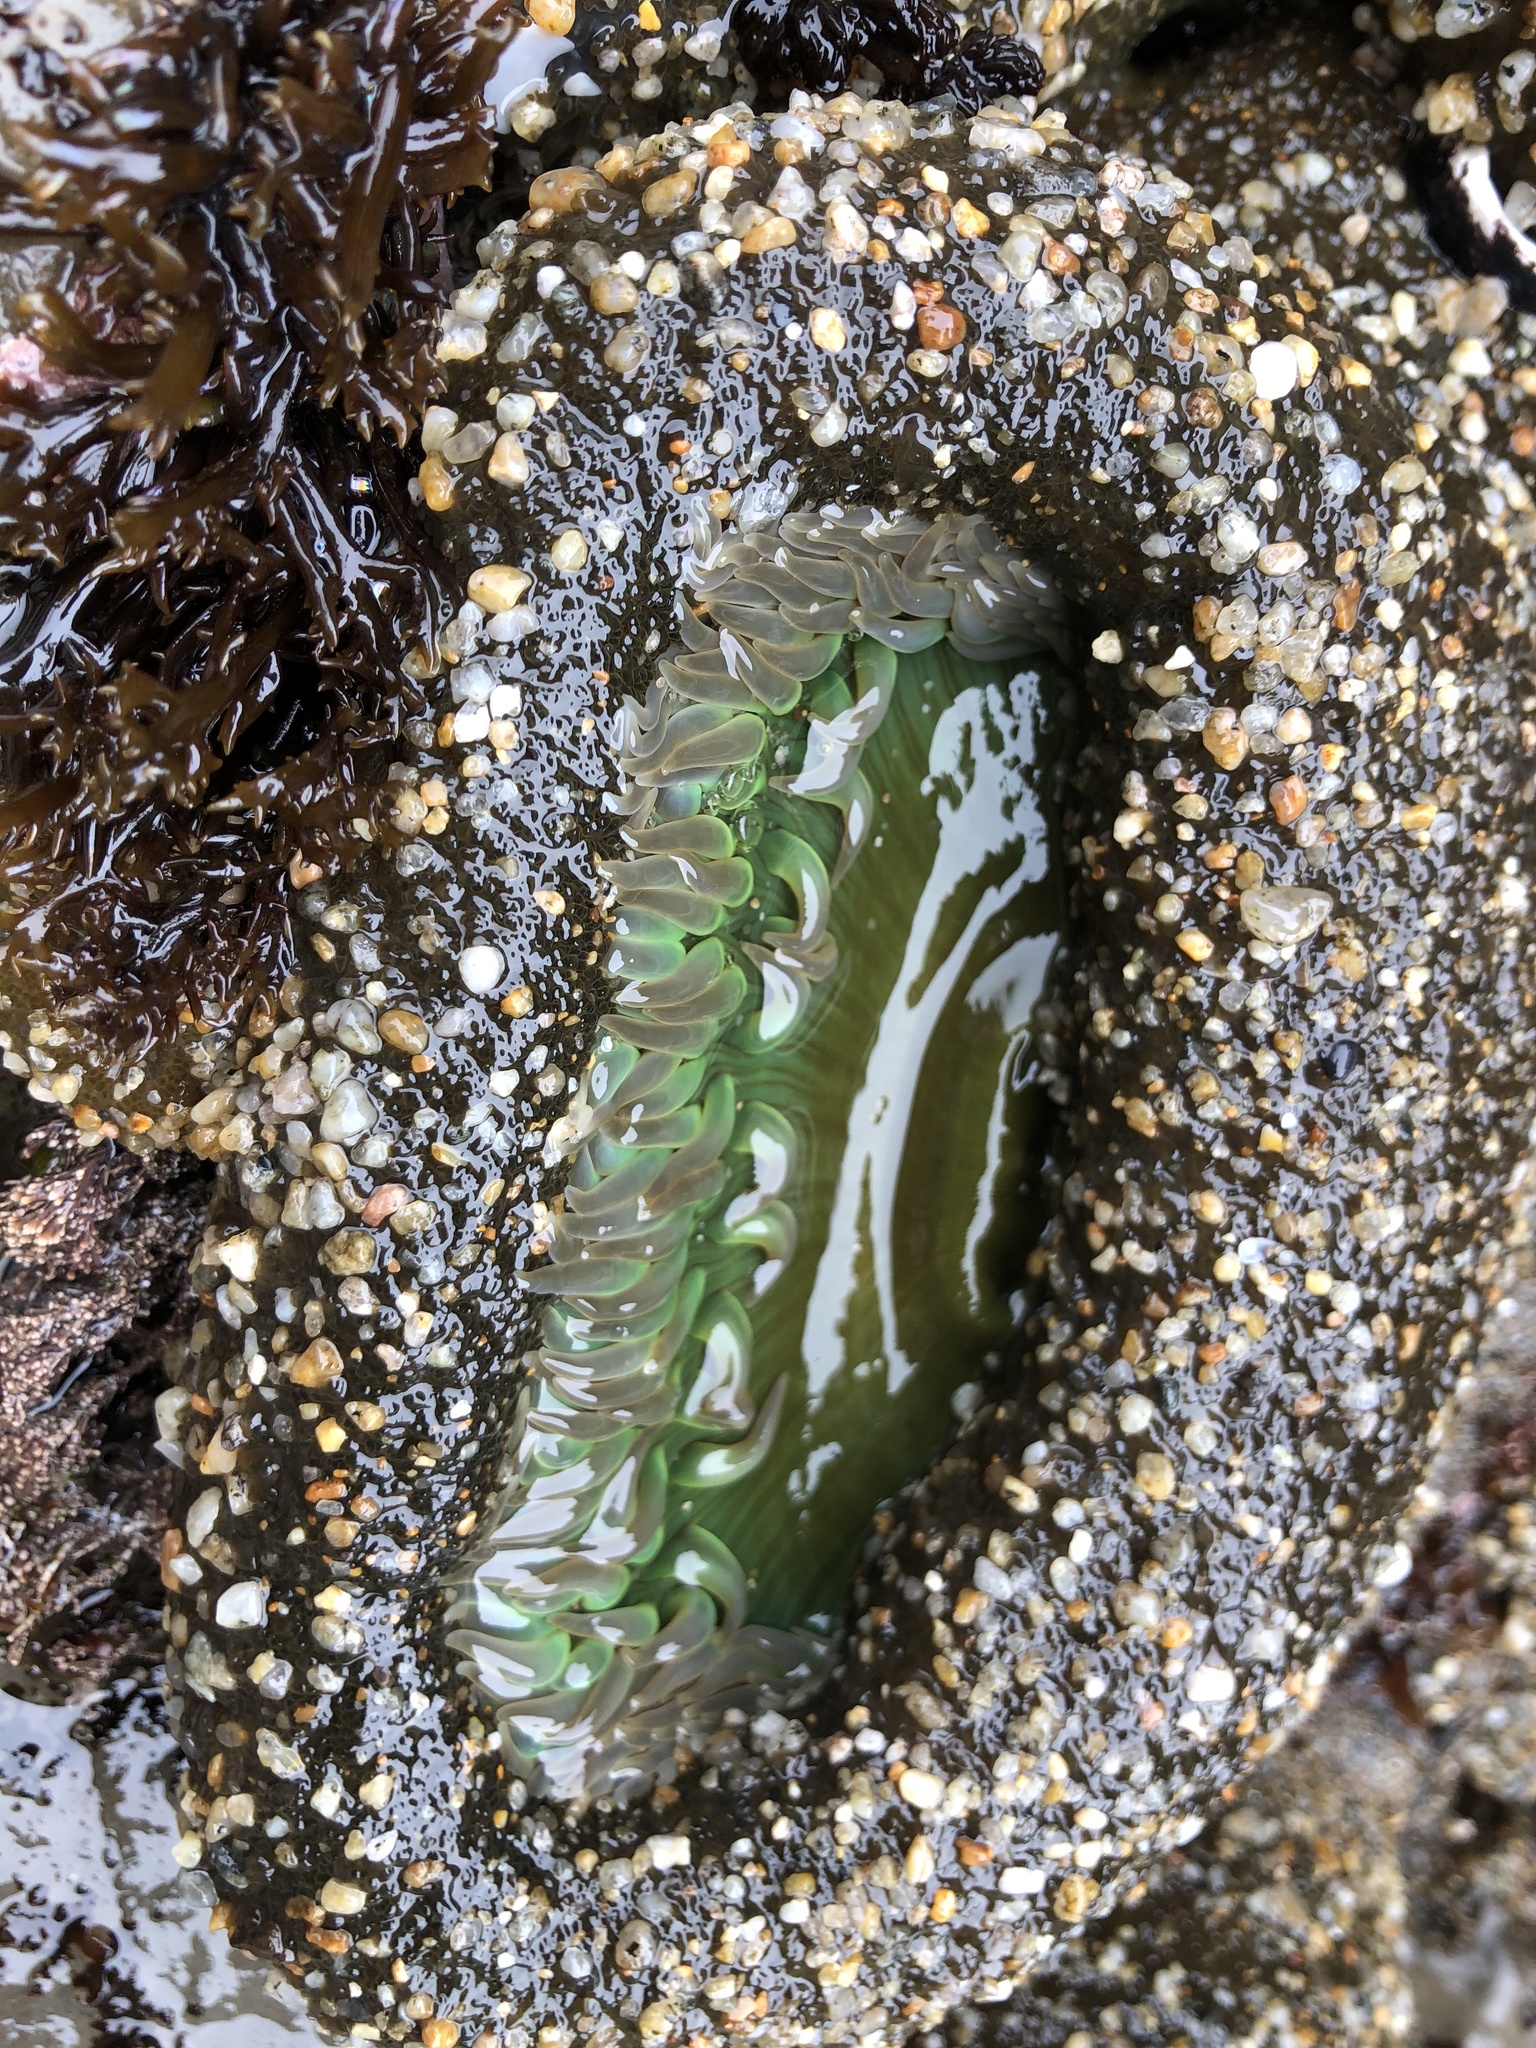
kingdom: Animalia
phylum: Cnidaria
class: Anthozoa
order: Actiniaria
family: Actiniidae
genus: Anthopleura
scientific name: Anthopleura xanthogrammica
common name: Giant green anemone
